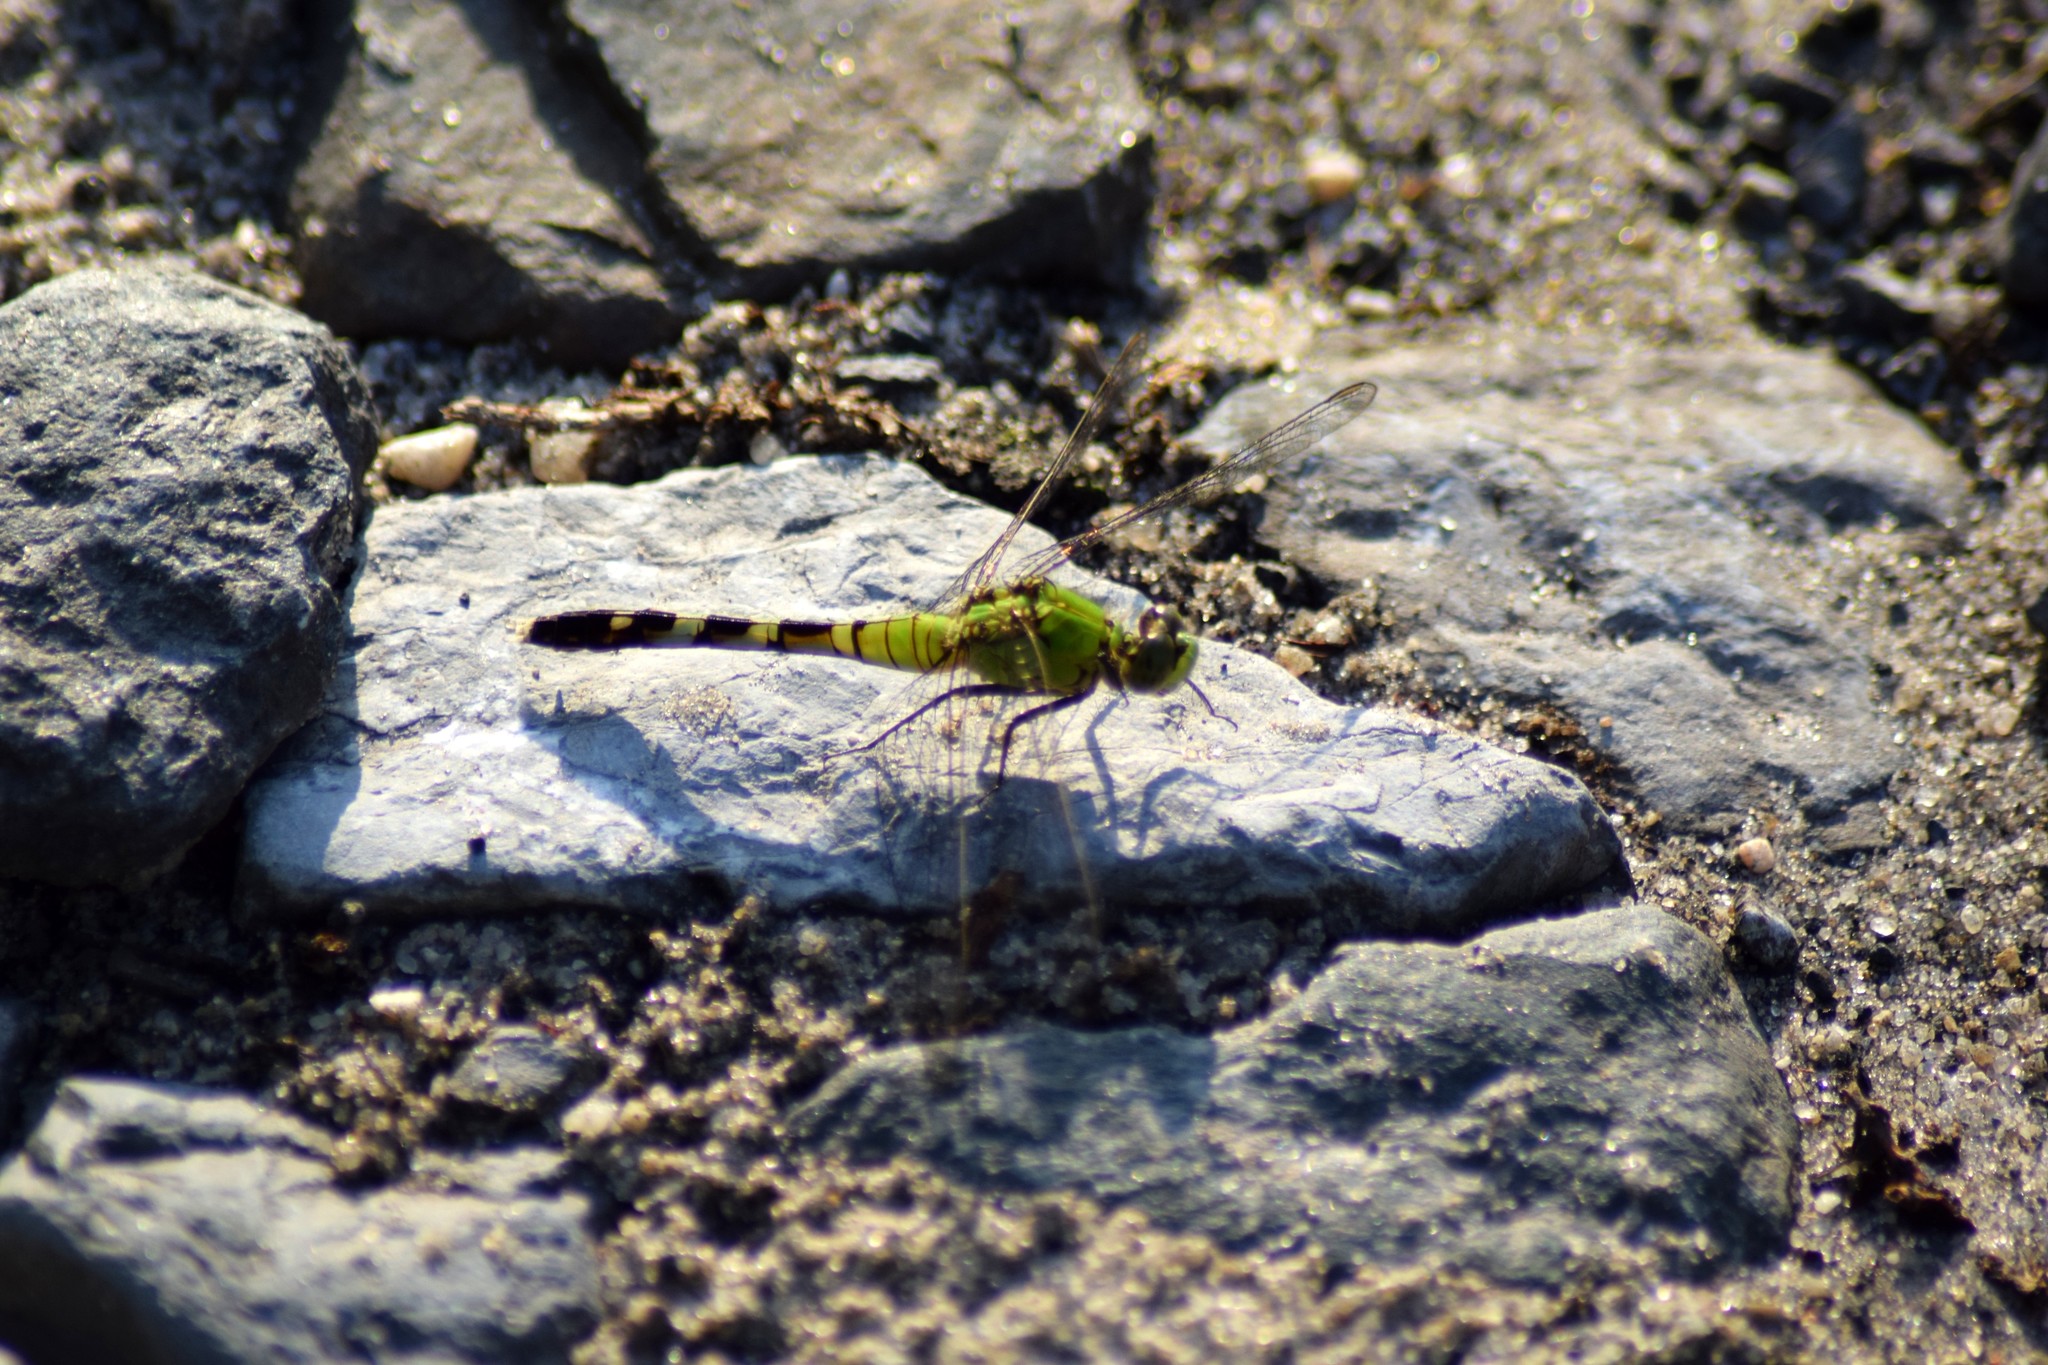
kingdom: Animalia
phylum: Arthropoda
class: Insecta
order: Odonata
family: Libellulidae
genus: Erythemis
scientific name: Erythemis simplicicollis
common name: Eastern pondhawk
